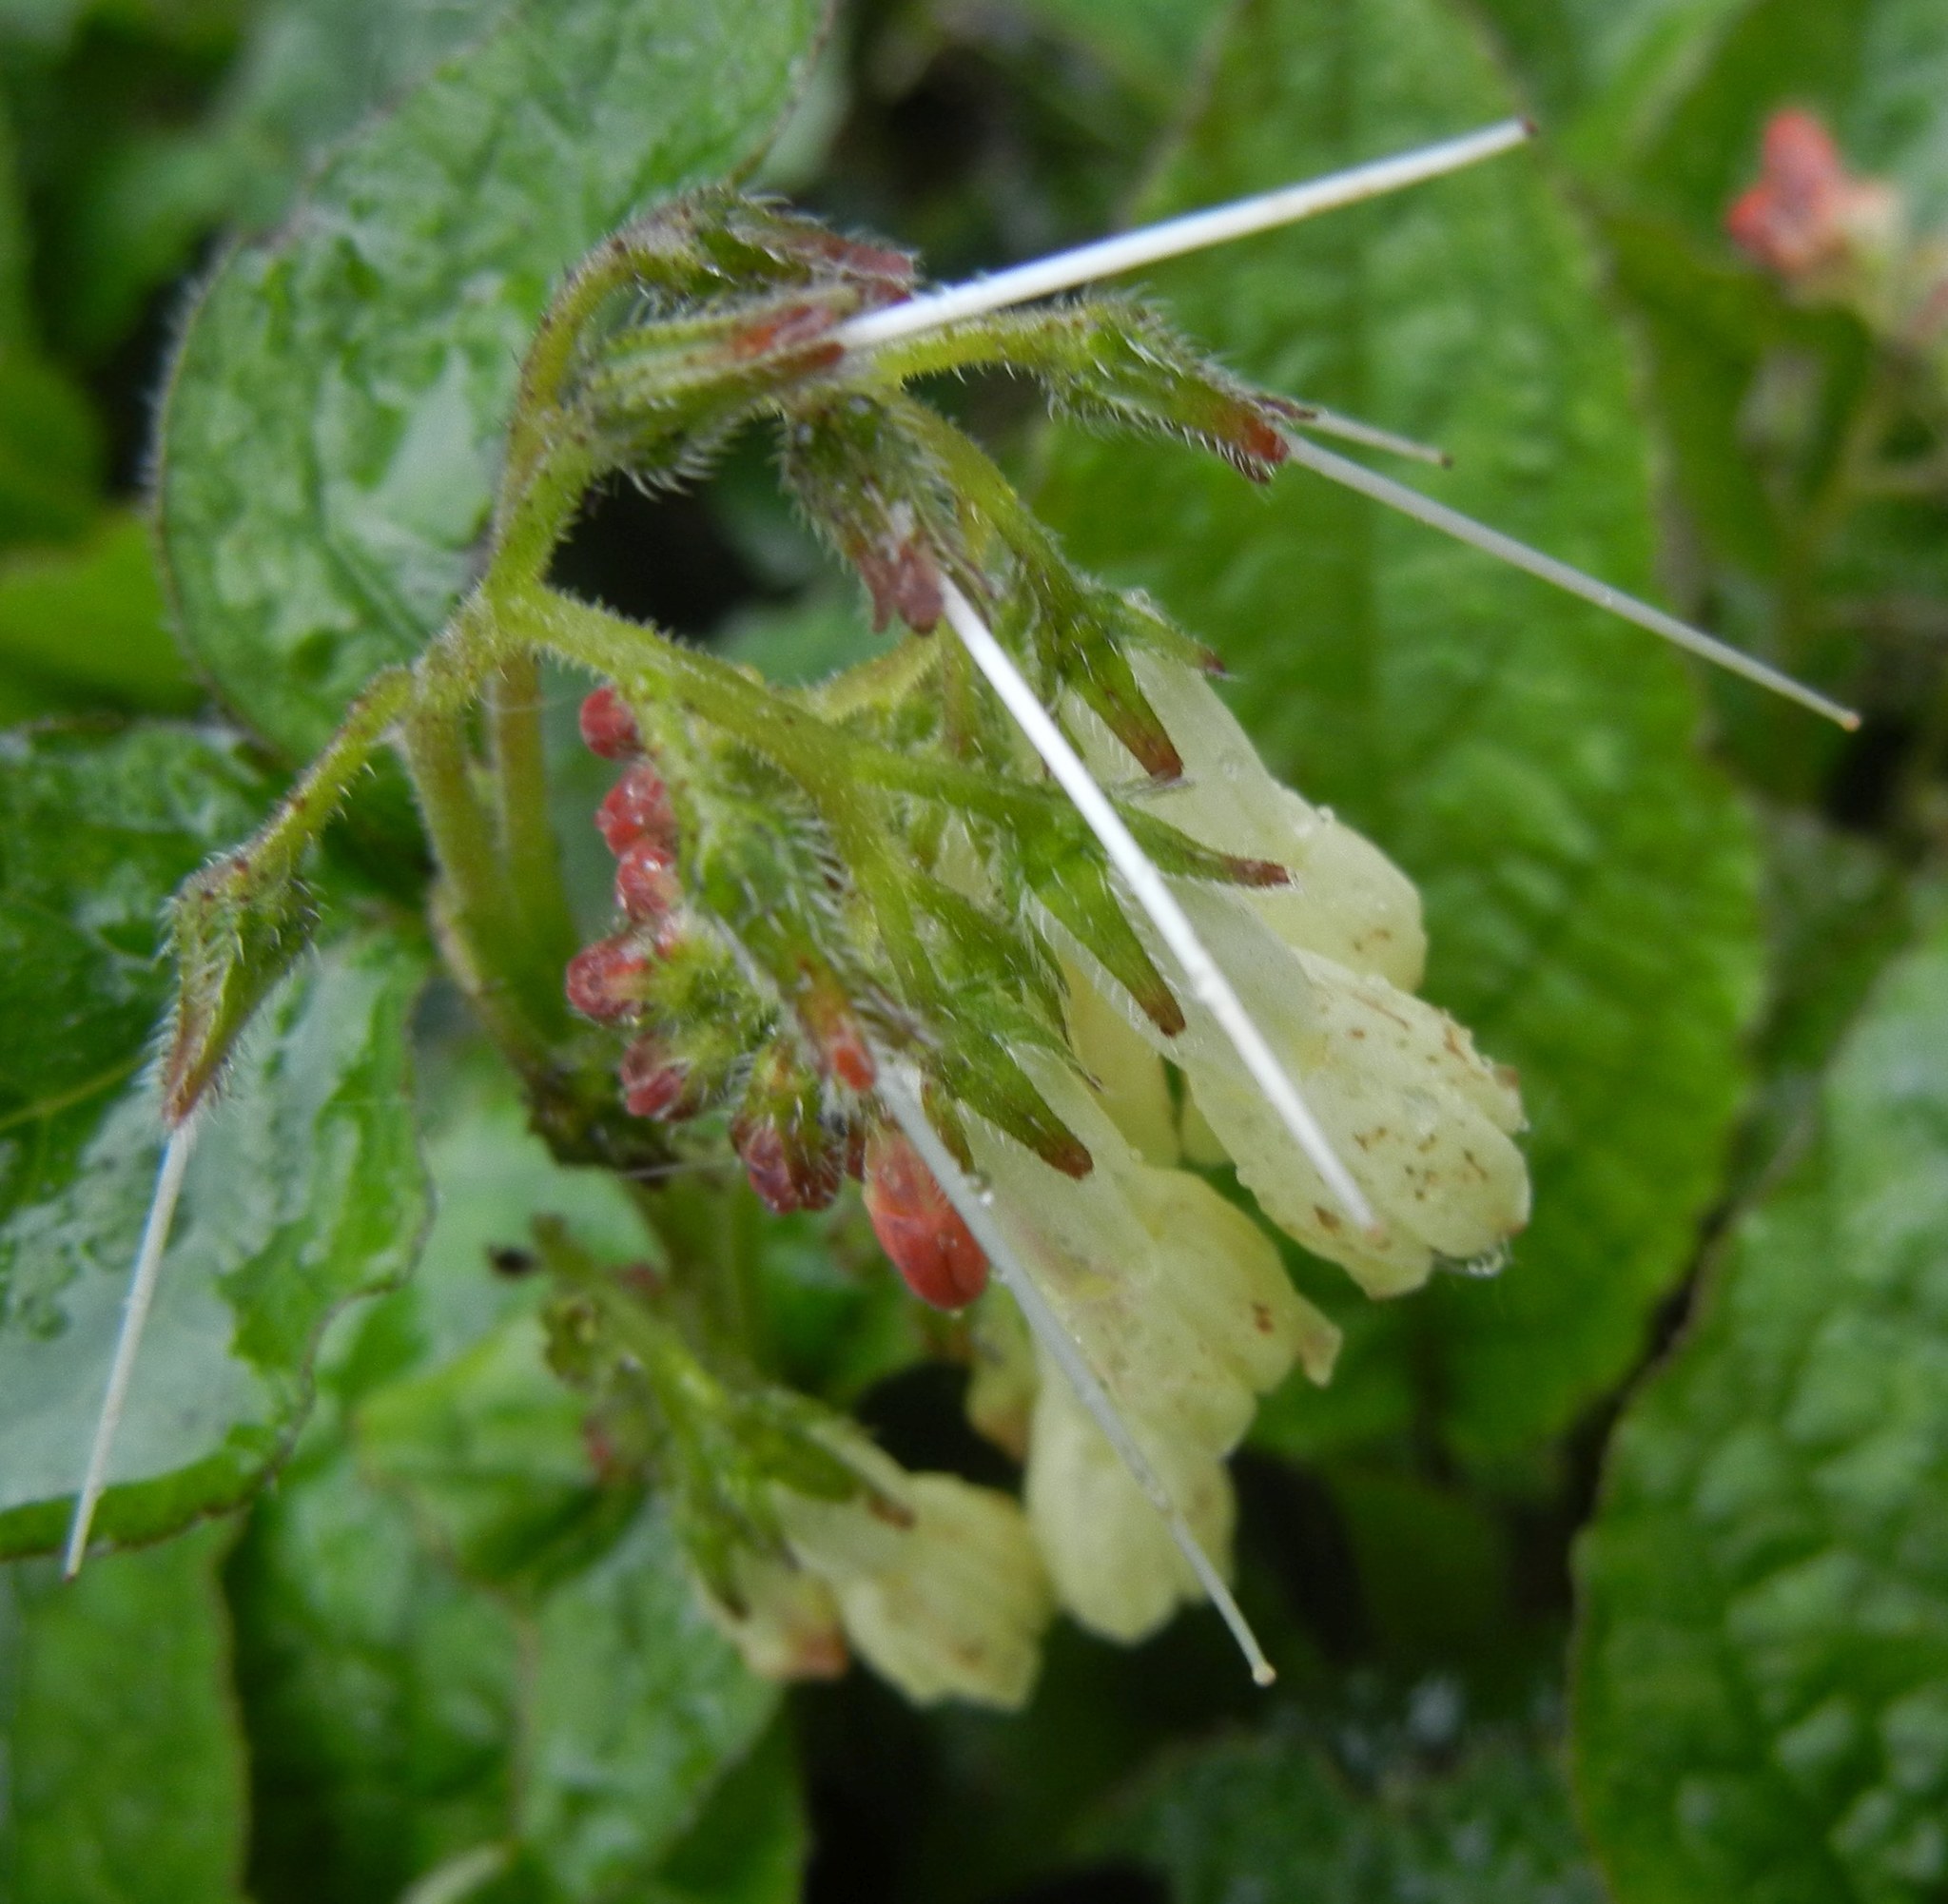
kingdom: Plantae
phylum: Tracheophyta
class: Magnoliopsida
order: Boraginales
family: Boraginaceae
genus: Symphytum
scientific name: Symphytum grandiflorum
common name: Creeping comfrey
